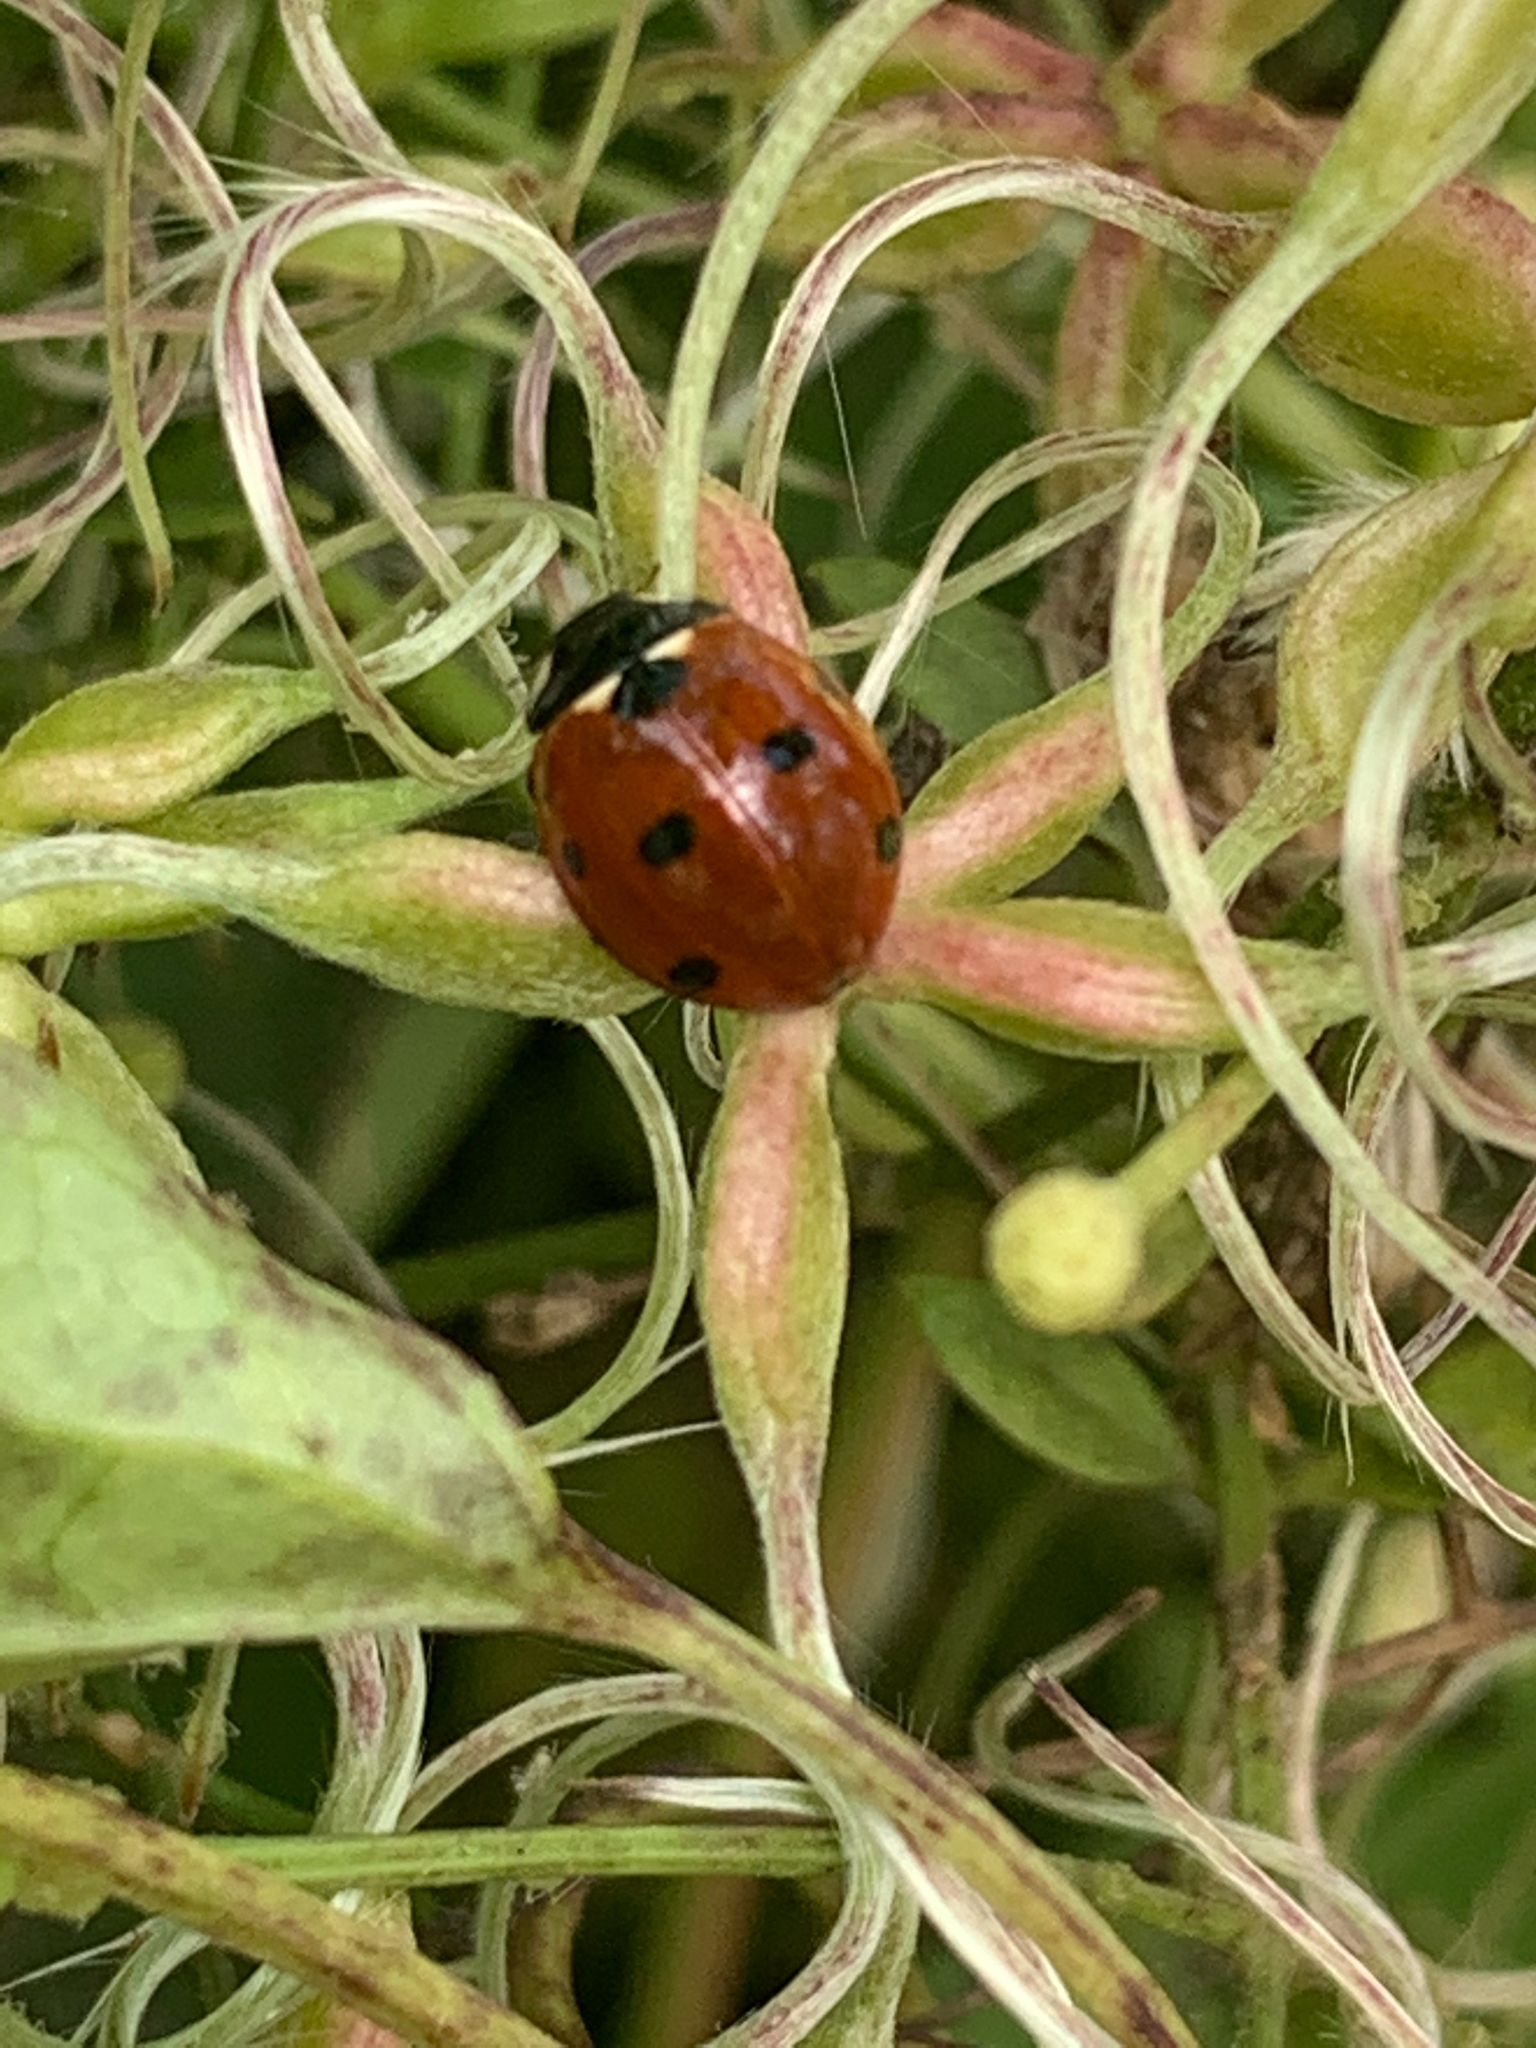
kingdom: Animalia
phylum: Arthropoda
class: Insecta
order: Coleoptera
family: Coccinellidae
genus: Coccinella
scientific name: Coccinella septempunctata
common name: Sevenspotted lady beetle
